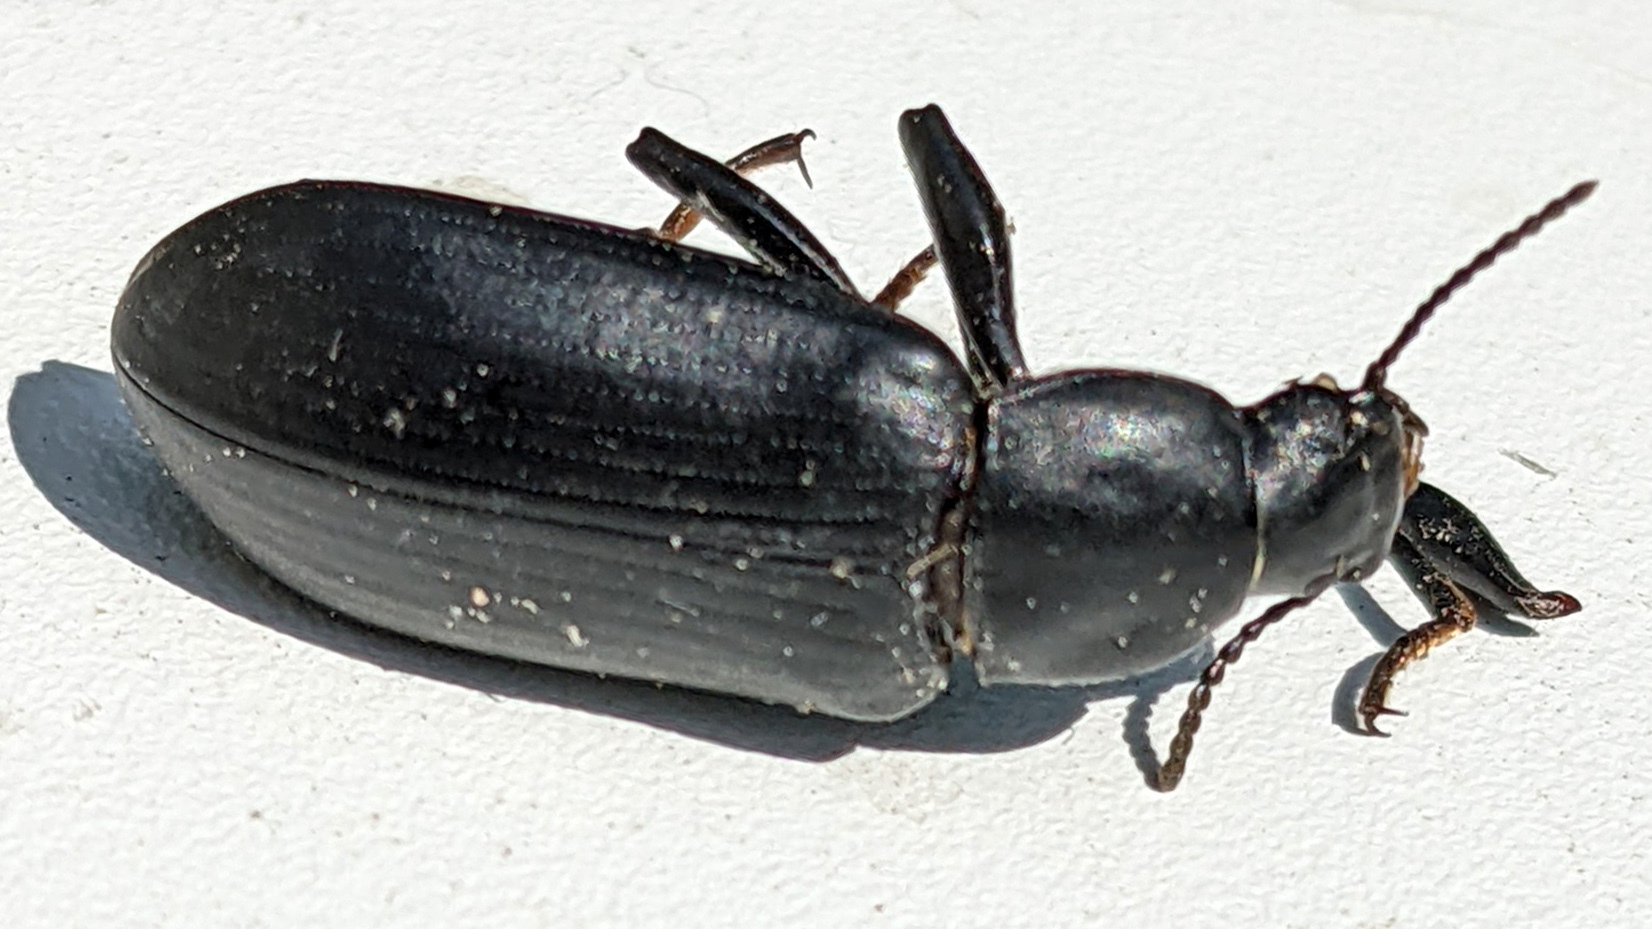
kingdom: Animalia
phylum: Arthropoda
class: Insecta
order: Coleoptera
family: Tenebrionidae
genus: Alobates
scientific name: Alobates pensylvanicus
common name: False mealworm beetle
